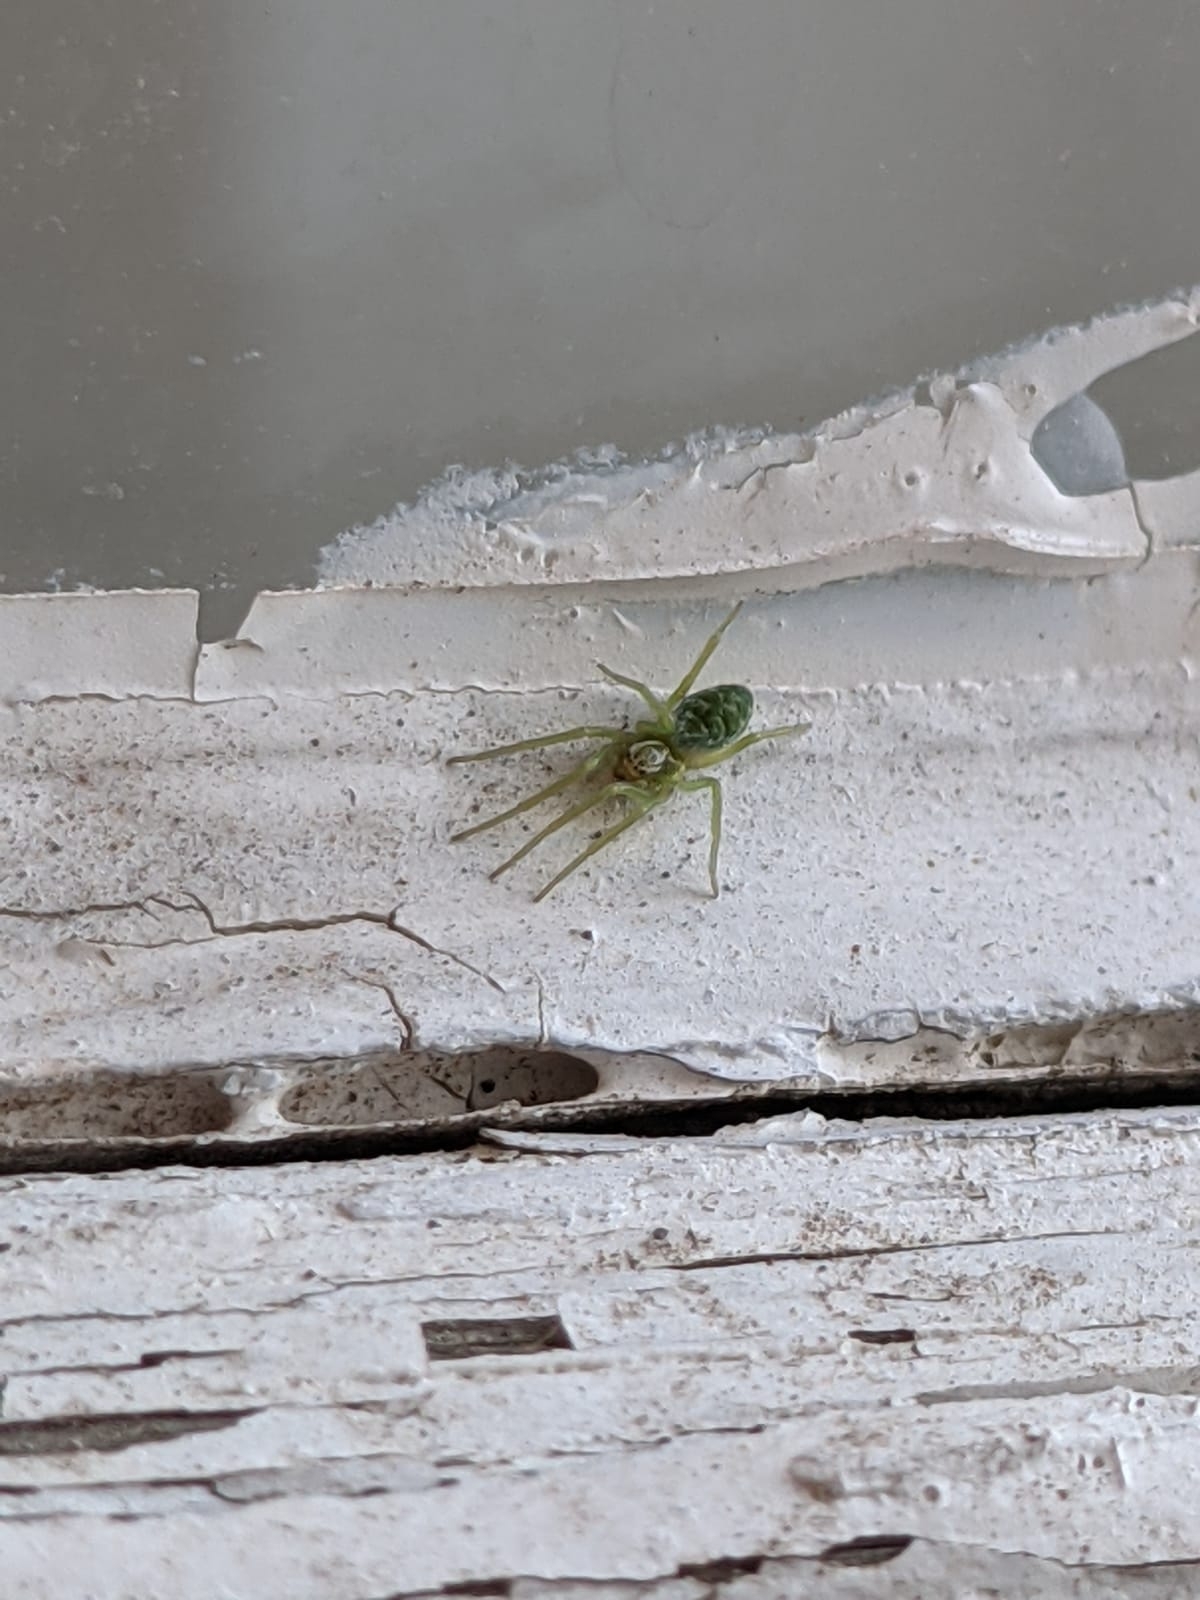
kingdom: Animalia
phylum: Arthropoda
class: Arachnida
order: Araneae
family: Dictynidae
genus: Nigma
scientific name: Nigma walckenaeri
